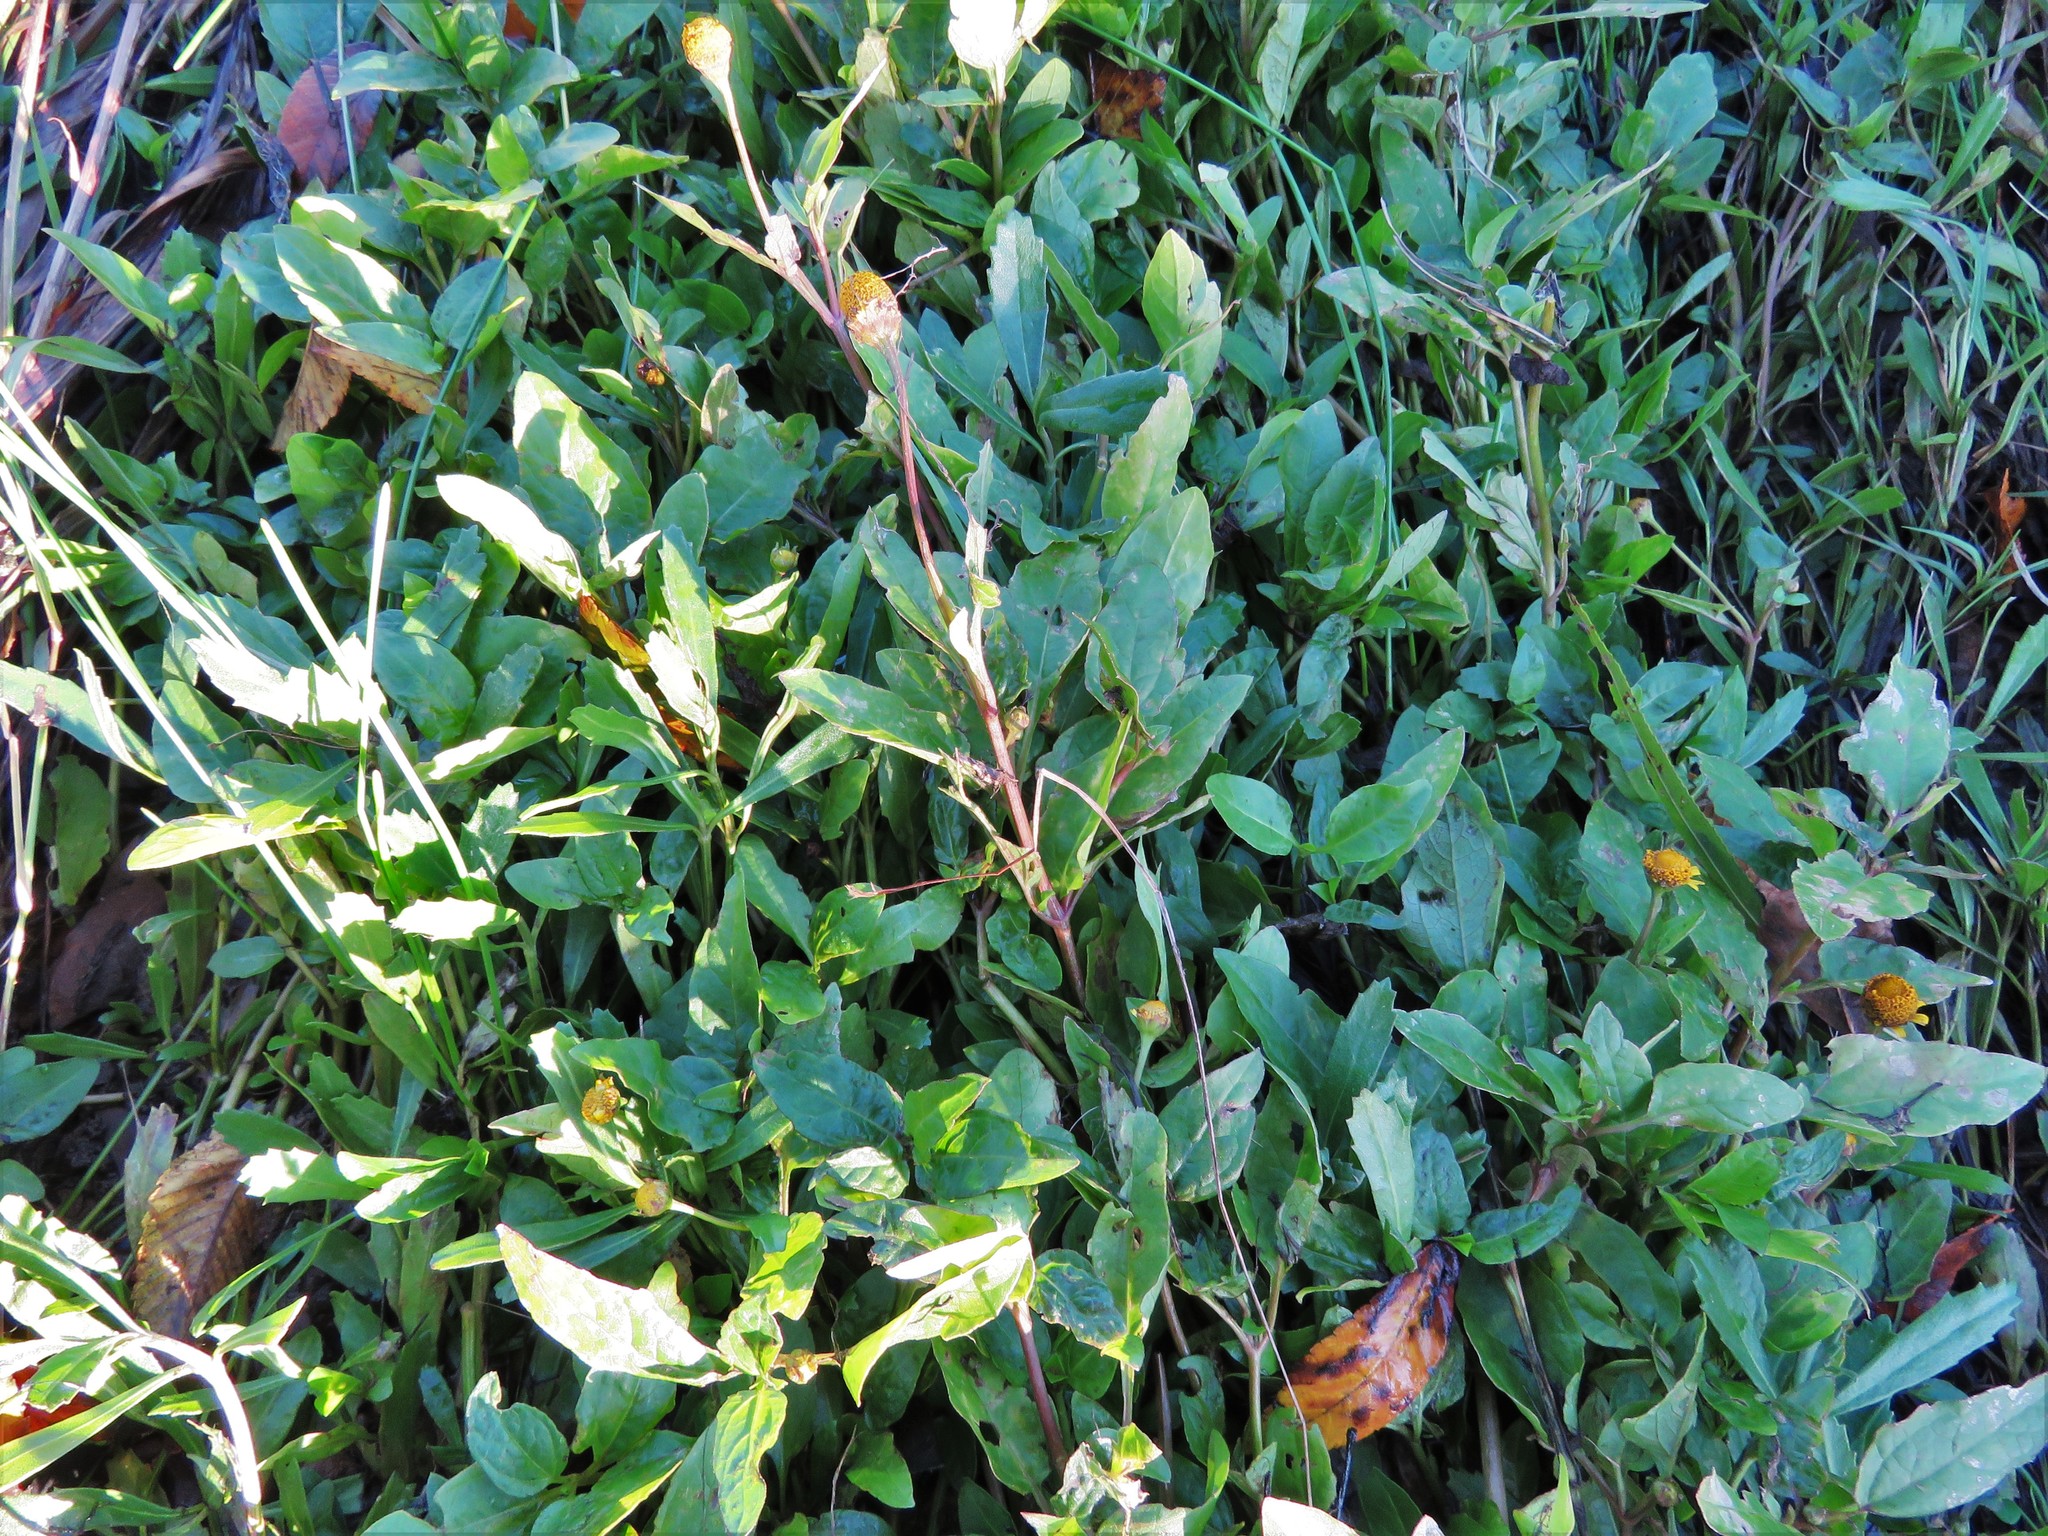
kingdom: Plantae
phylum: Tracheophyta
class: Magnoliopsida
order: Asterales
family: Asteraceae
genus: Acmella
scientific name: Acmella repens
